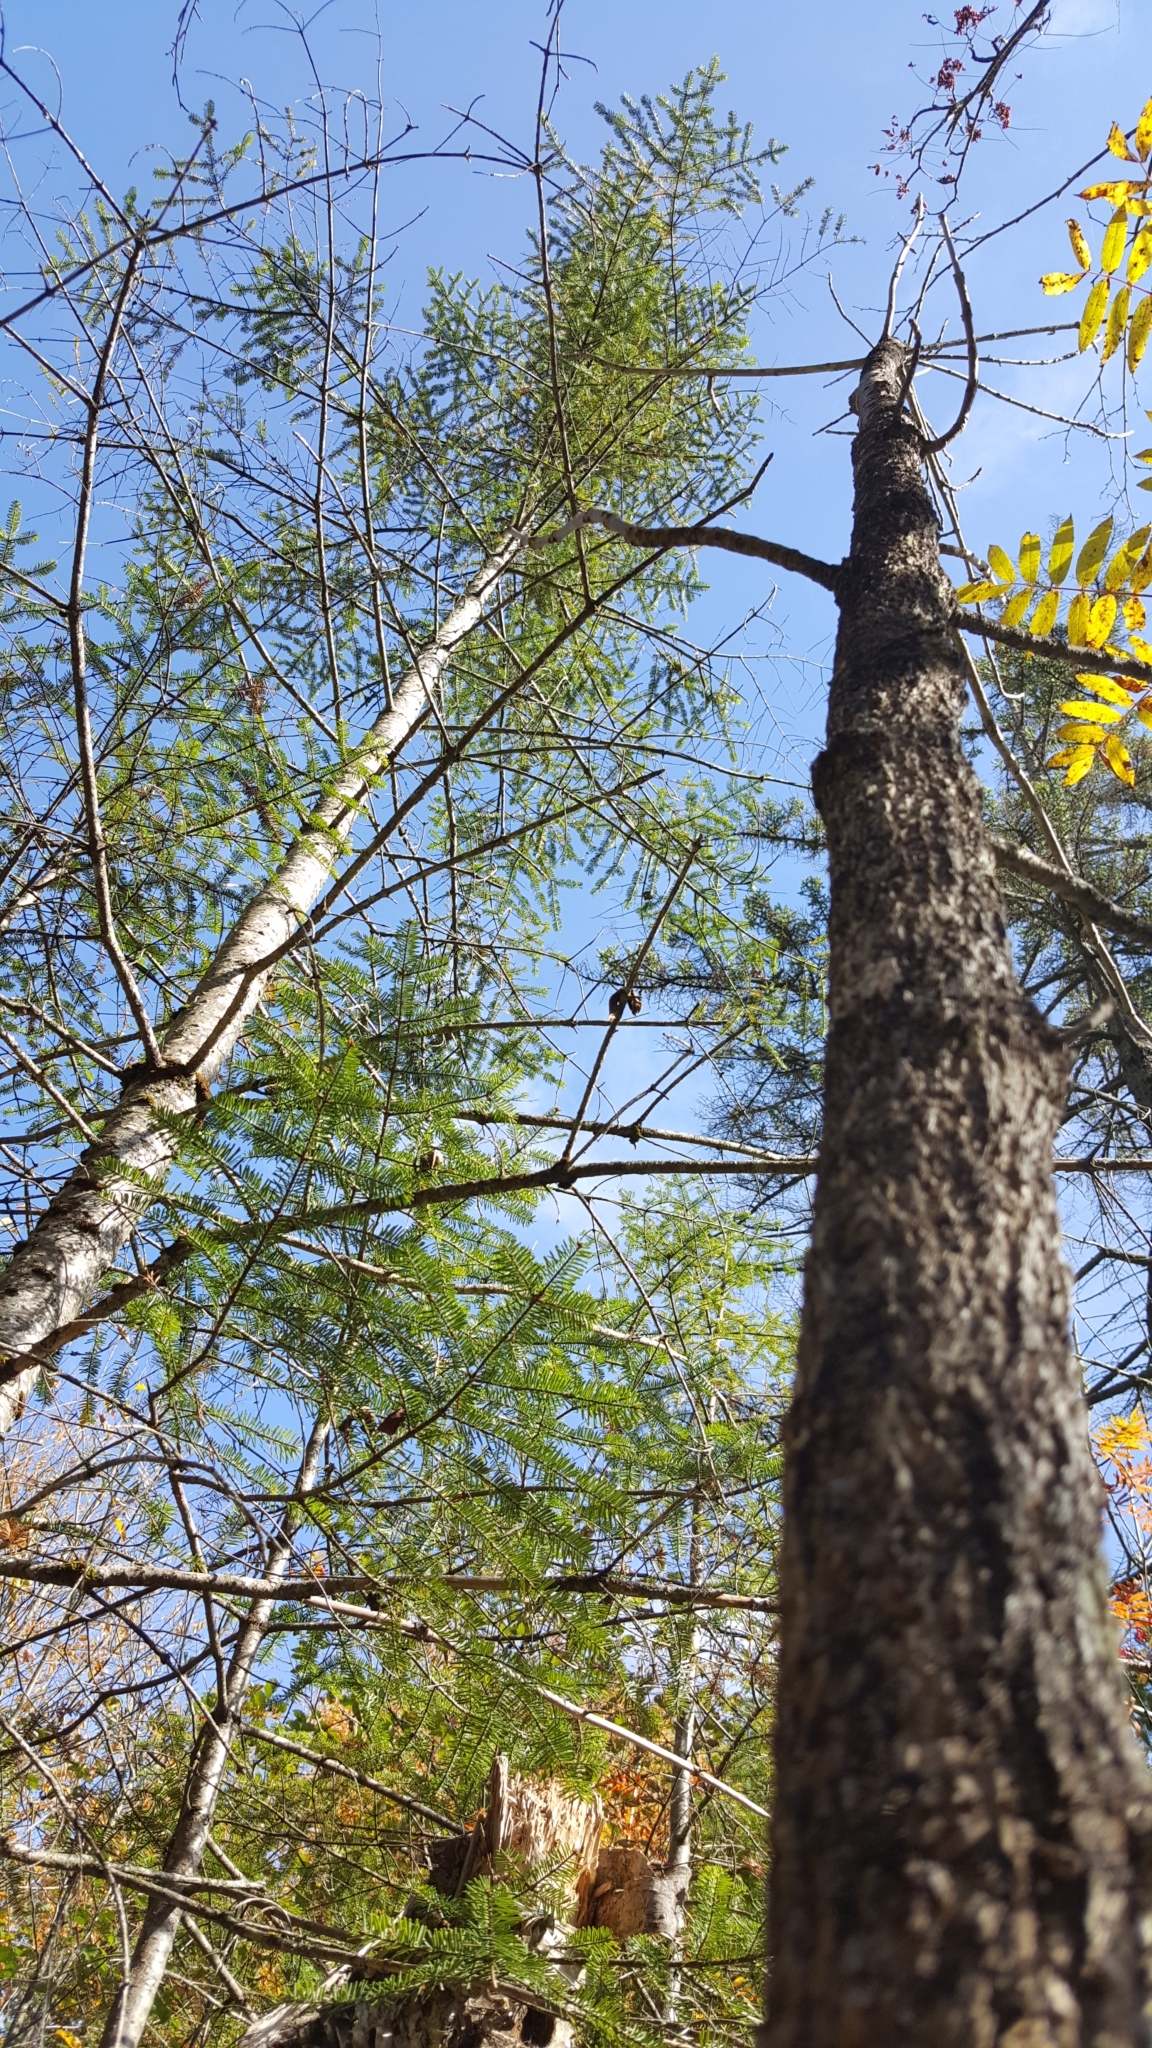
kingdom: Plantae
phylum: Tracheophyta
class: Magnoliopsida
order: Lamiales
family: Oleaceae
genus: Fraxinus
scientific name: Fraxinus nigra
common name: Black ash
